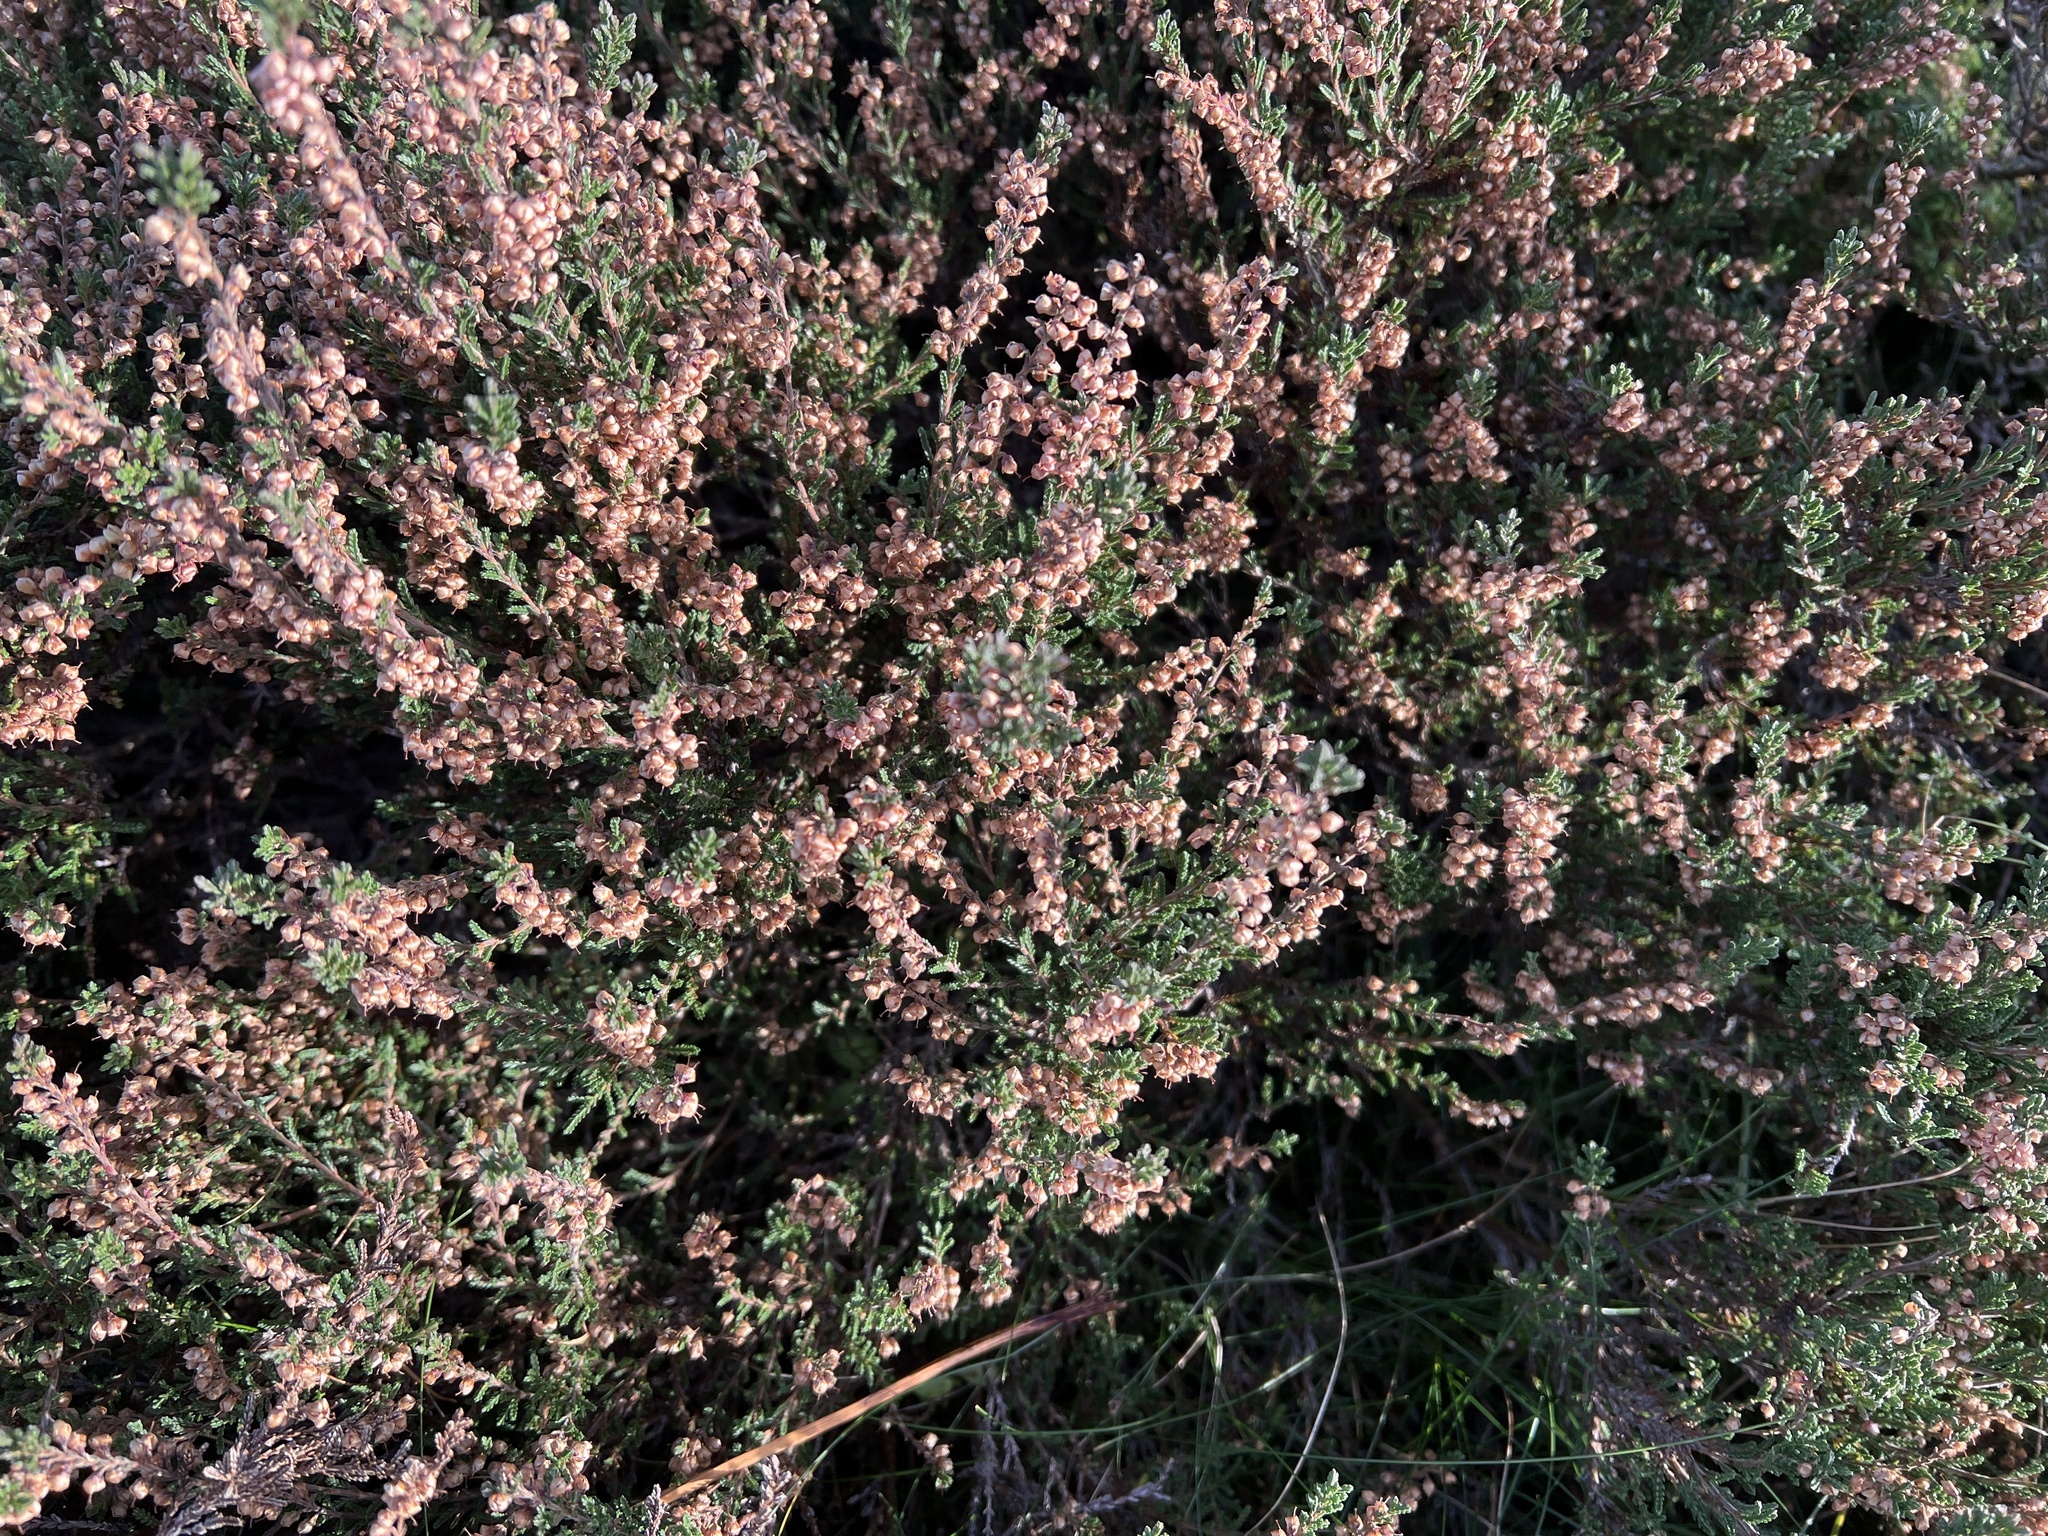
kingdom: Plantae
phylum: Tracheophyta
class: Magnoliopsida
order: Ericales
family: Ericaceae
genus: Calluna
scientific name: Calluna vulgaris
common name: Heather
